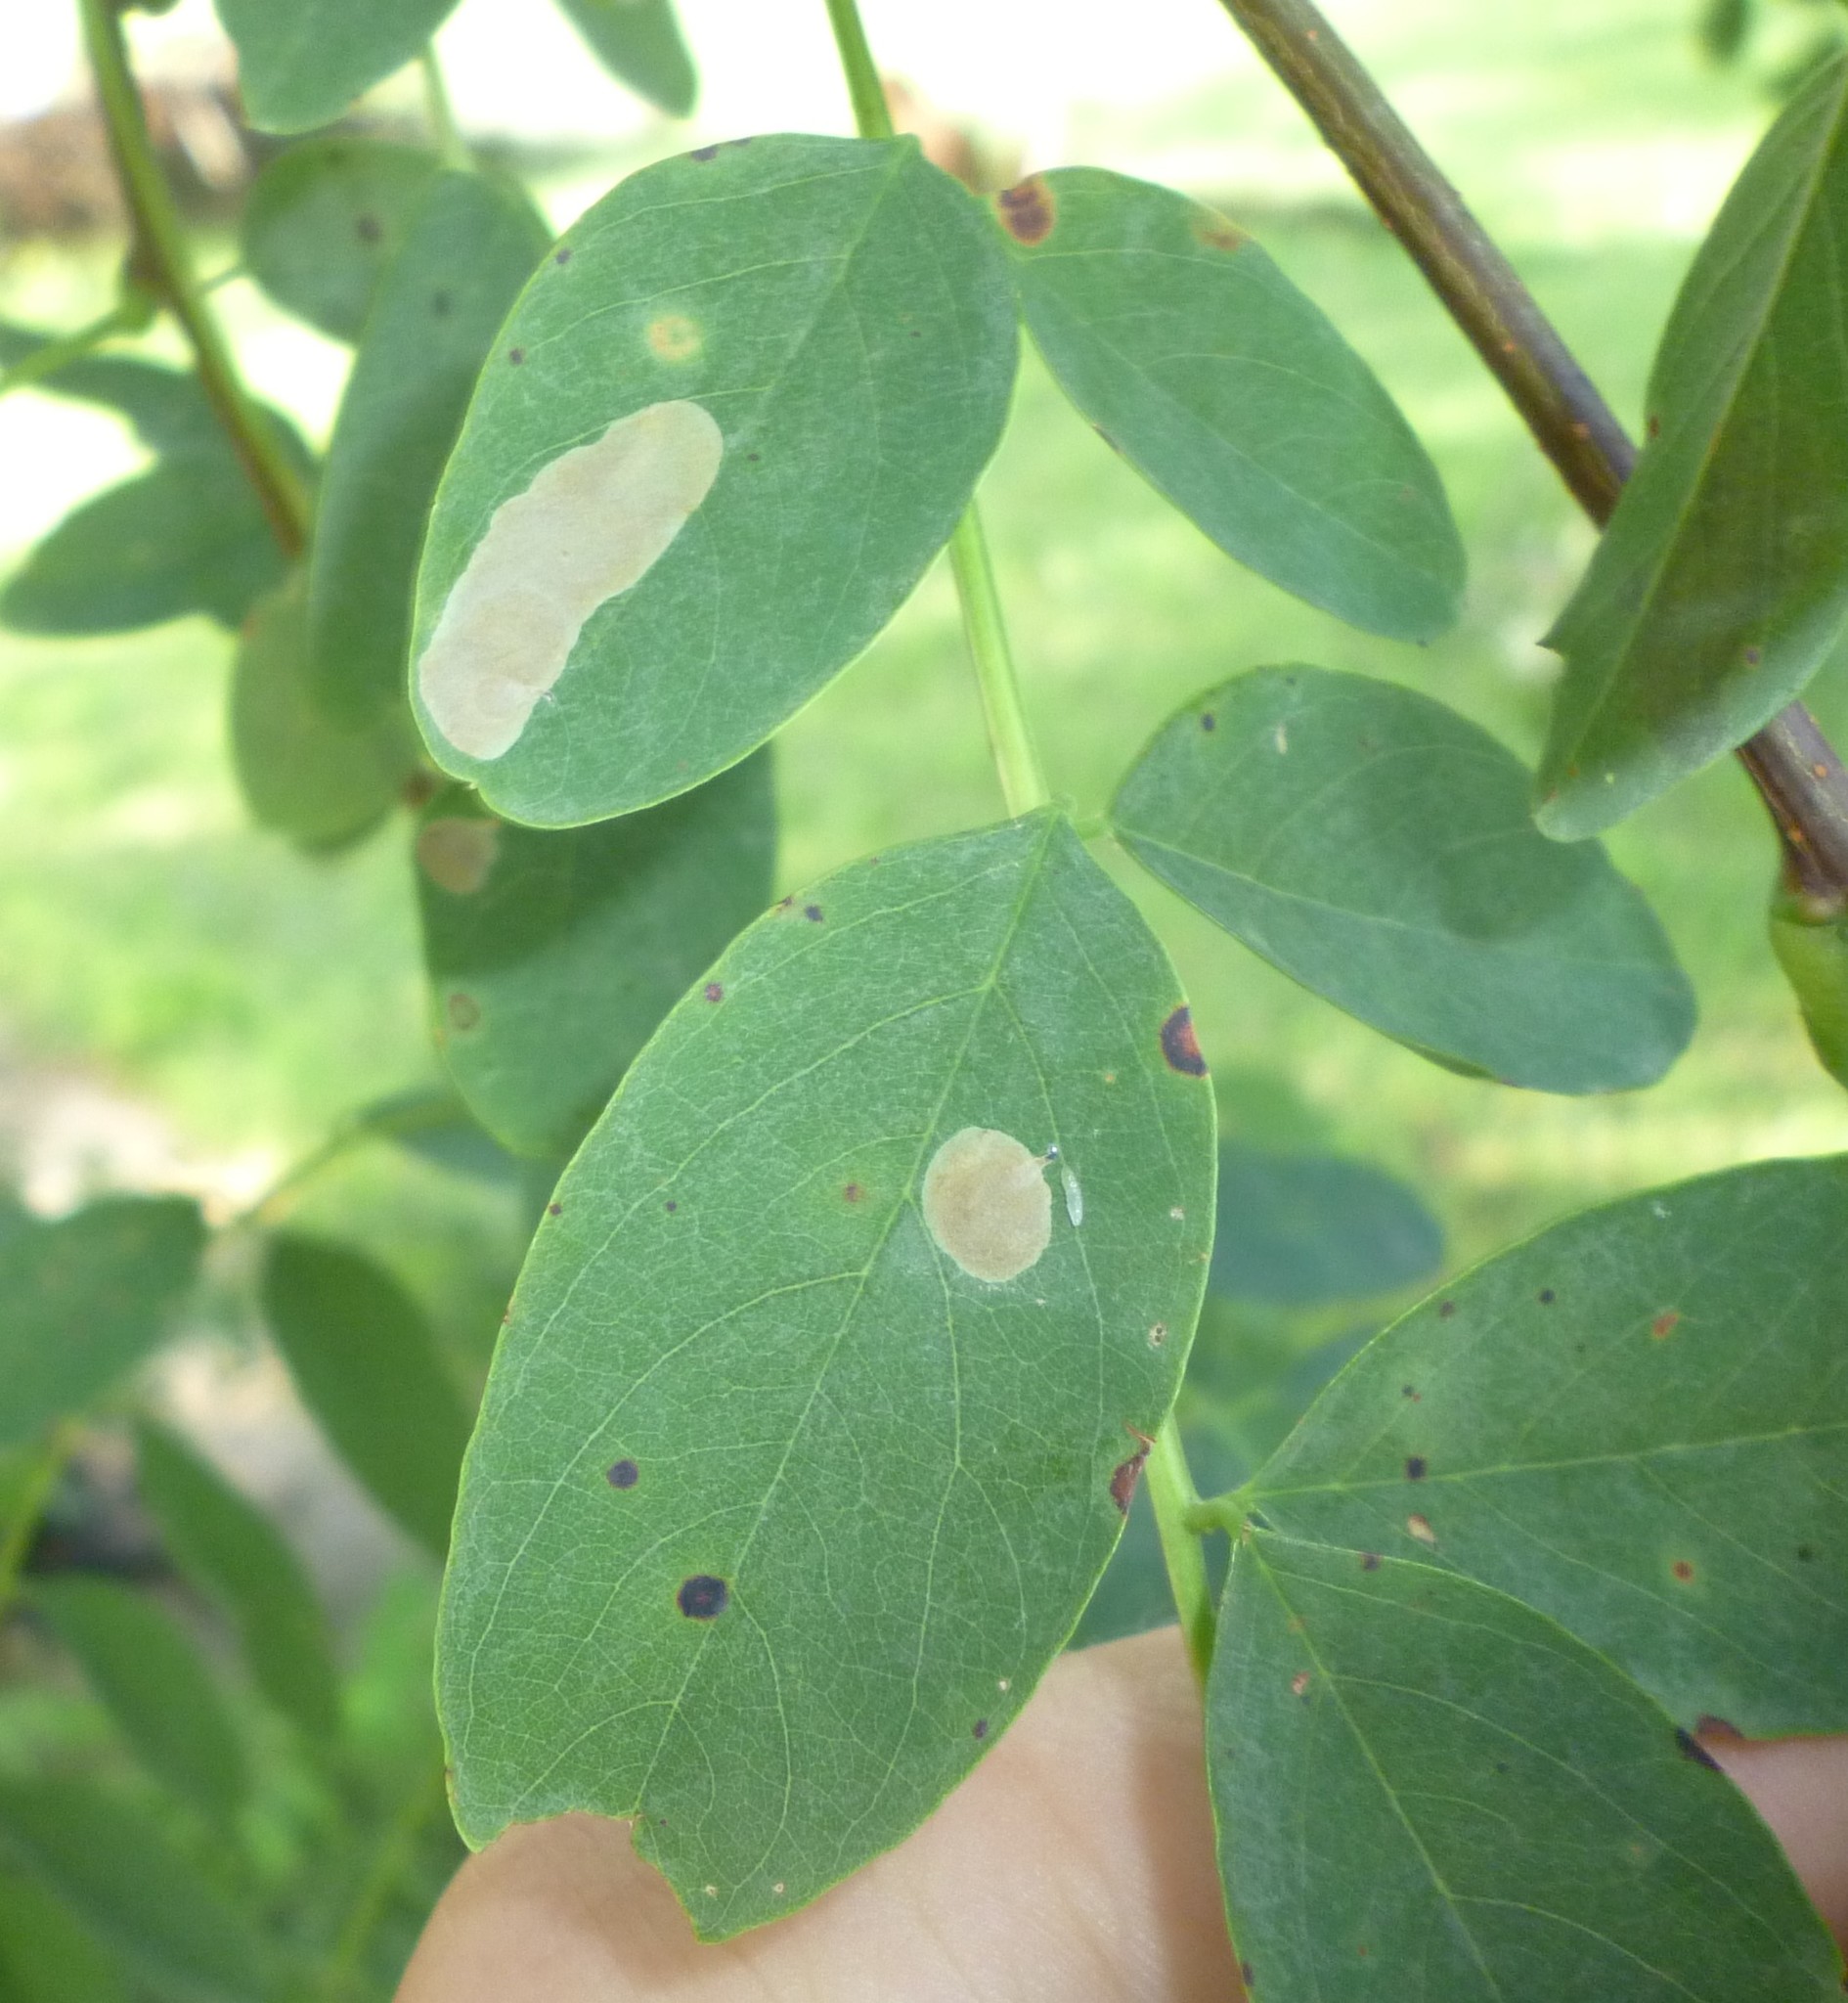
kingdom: Animalia
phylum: Arthropoda
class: Insecta
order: Lepidoptera
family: Gracillariidae
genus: Chrysaster
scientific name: Chrysaster ostensackenella
